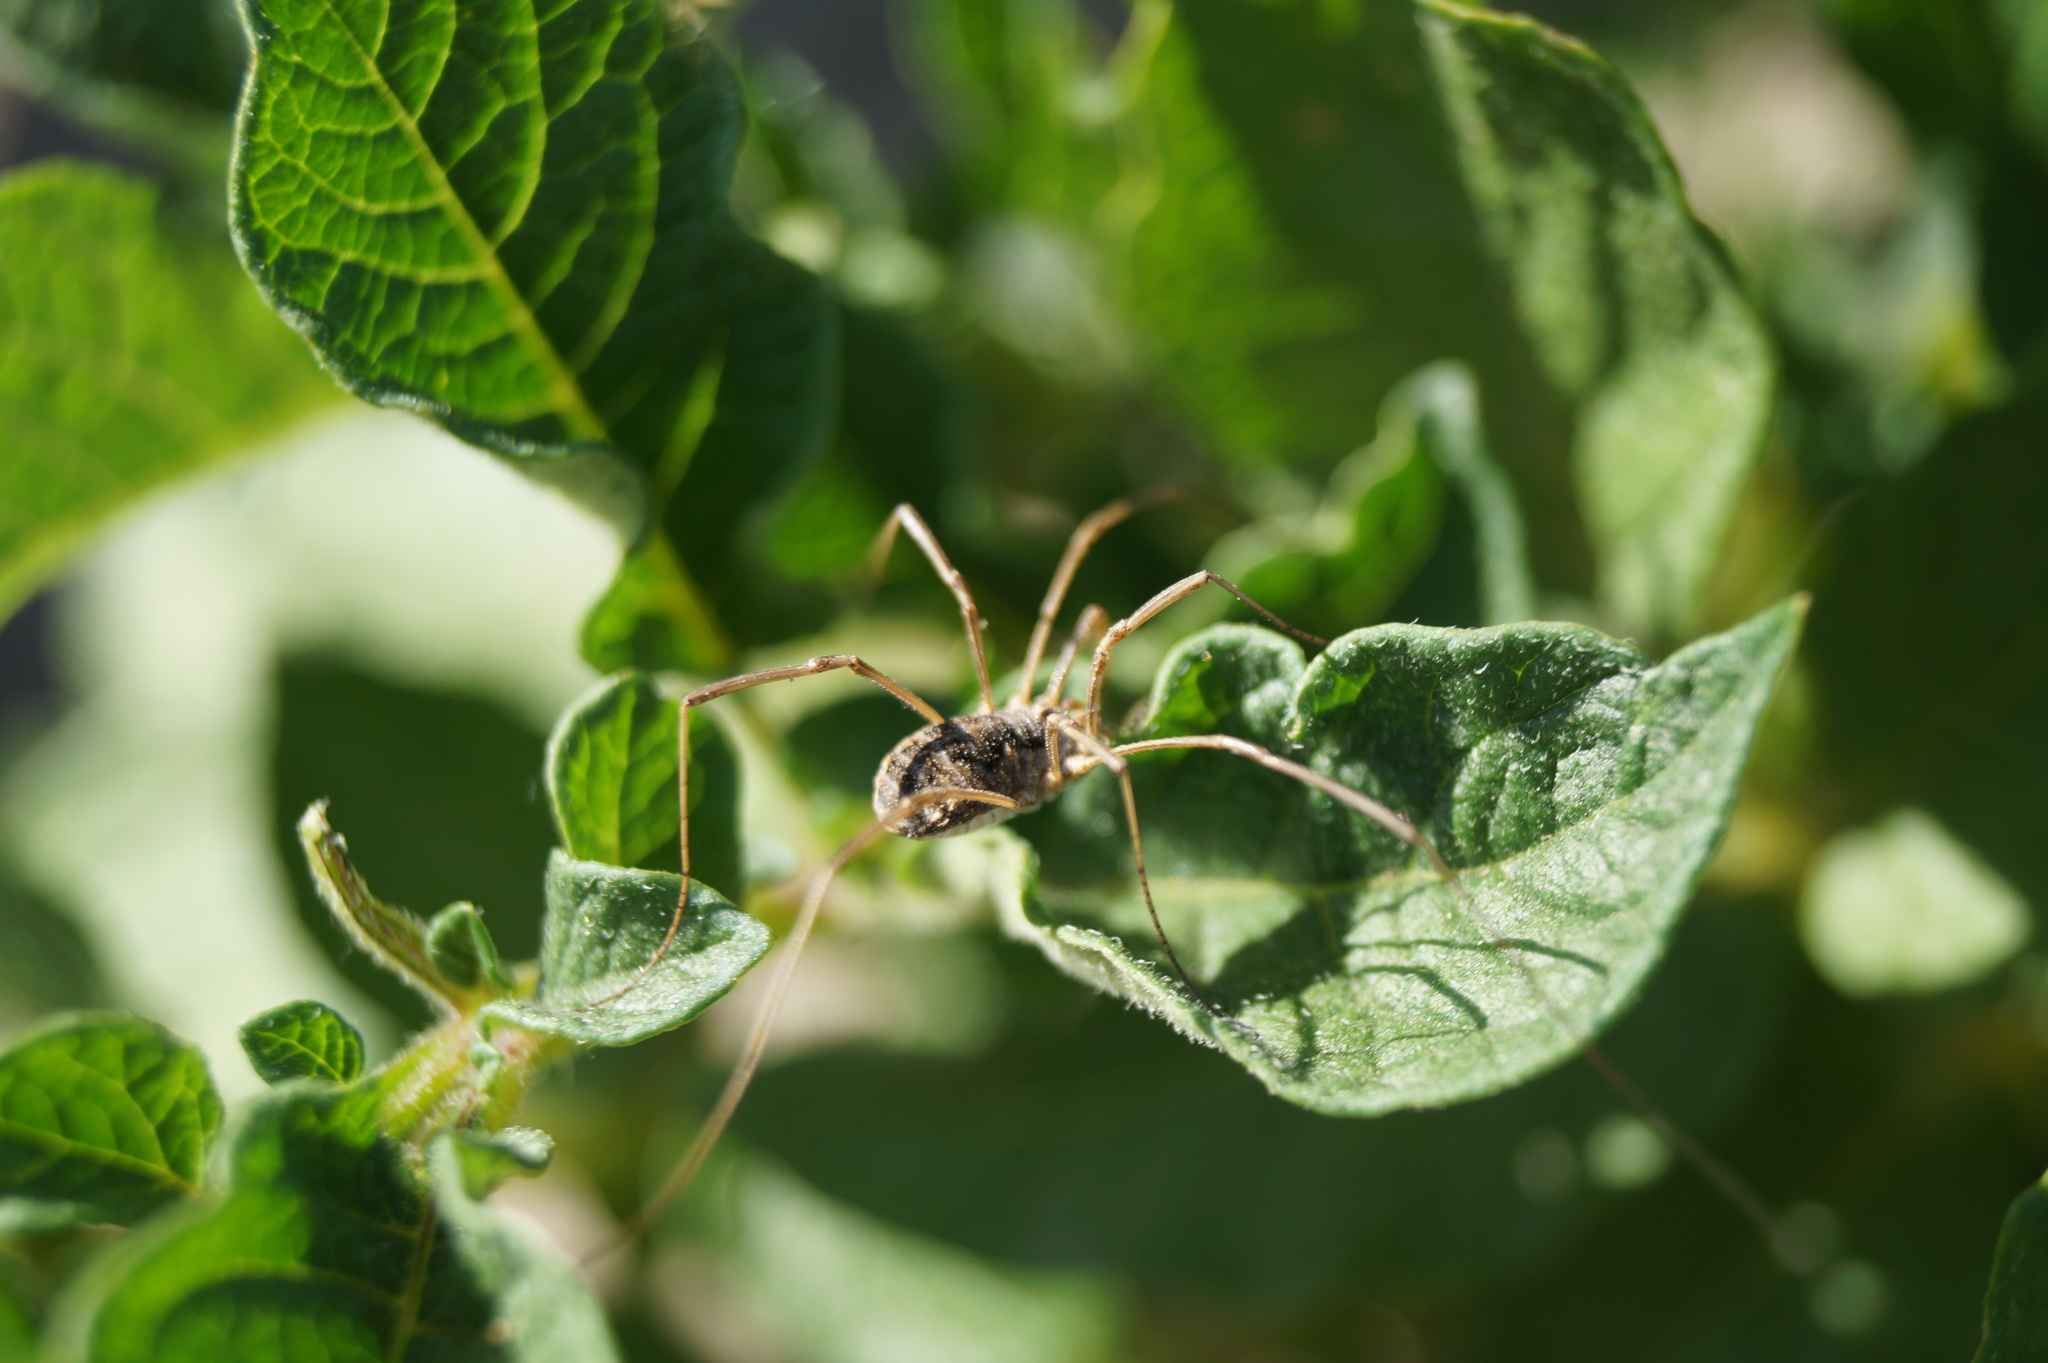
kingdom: Animalia
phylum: Arthropoda
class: Arachnida
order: Opiliones
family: Phalangiidae
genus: Phalangium
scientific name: Phalangium opilio
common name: Daddy longleg
